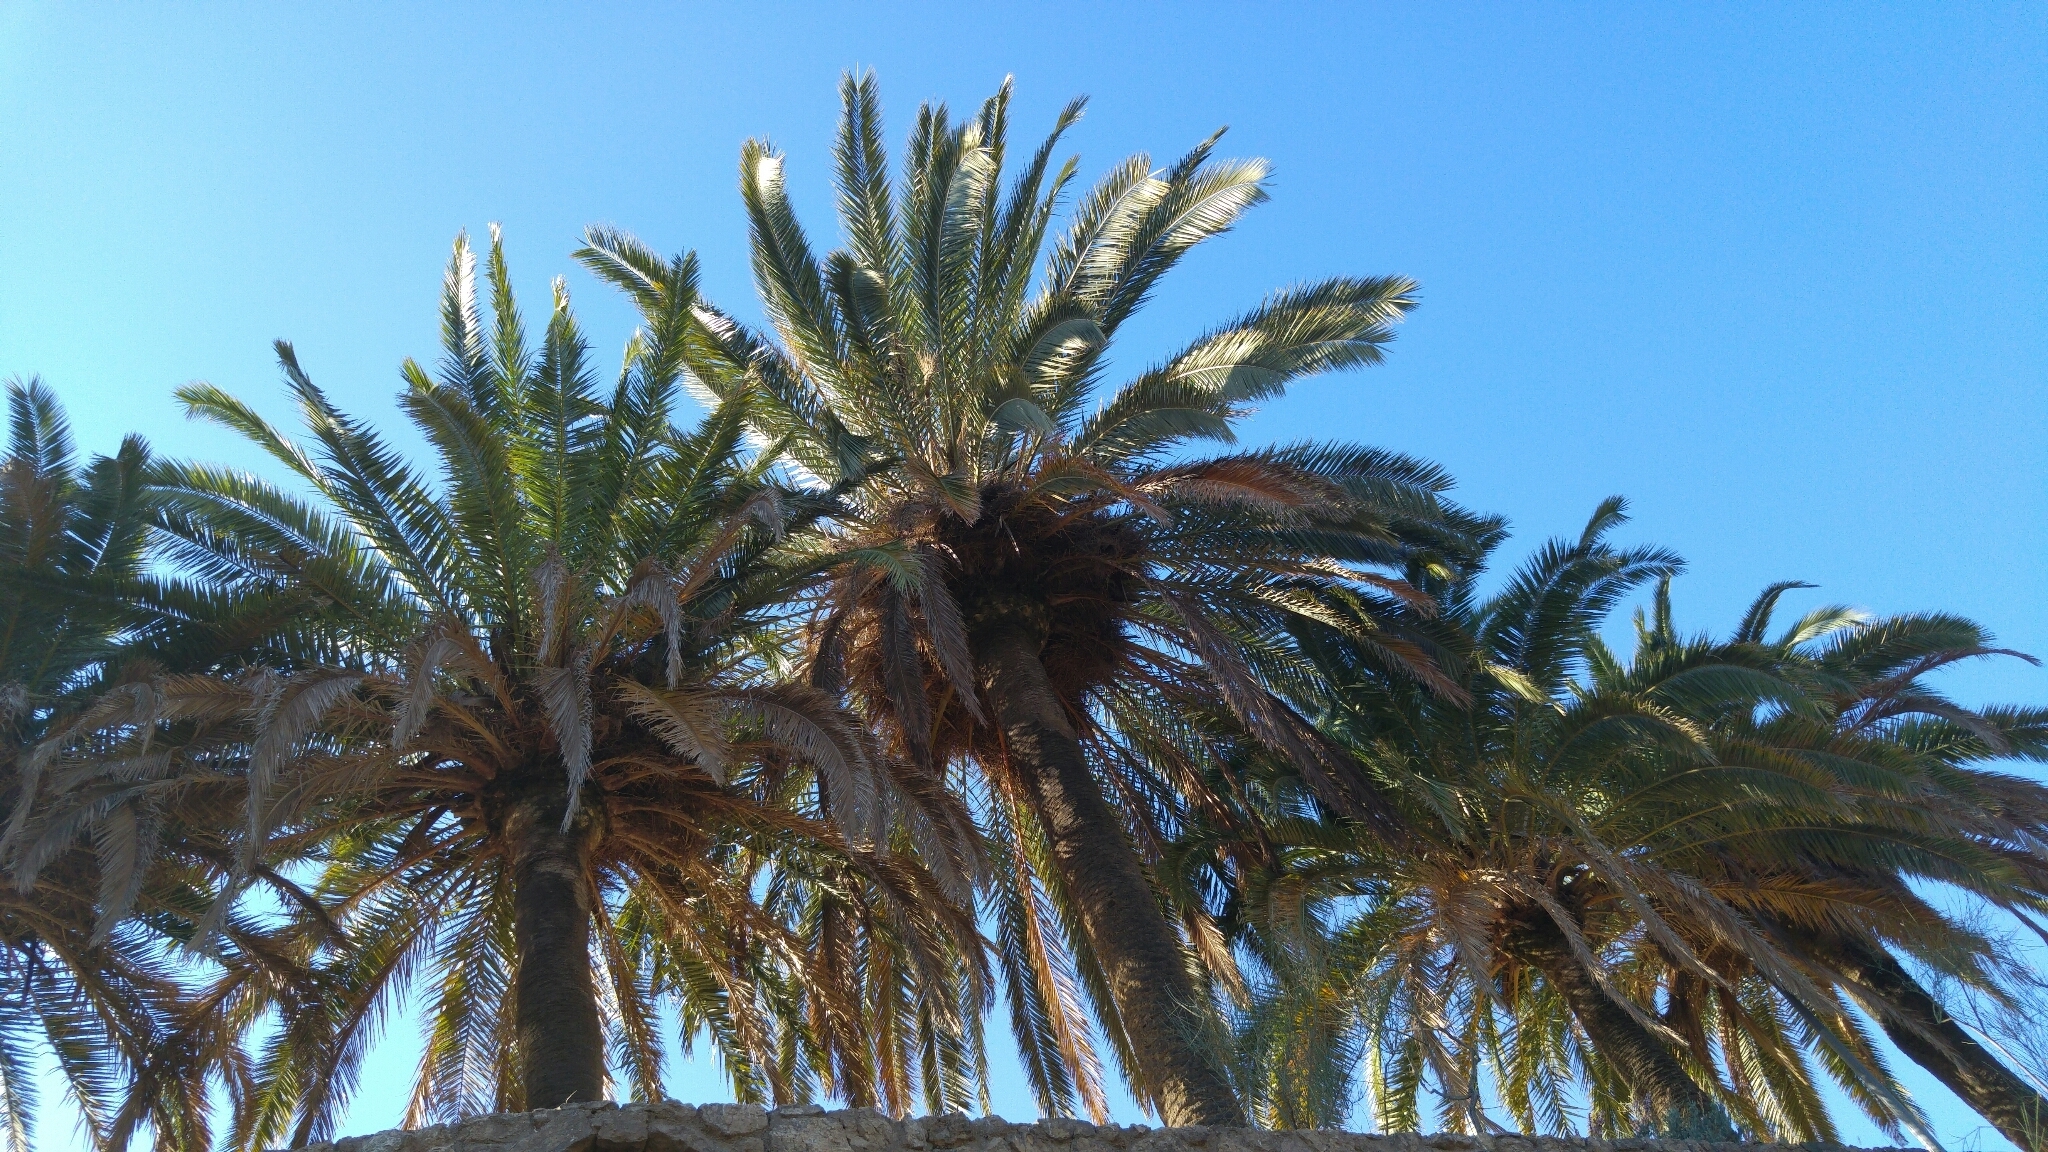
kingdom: Animalia
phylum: Chordata
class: Aves
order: Psittaciformes
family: Psittacidae
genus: Myiopsitta
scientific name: Myiopsitta monachus
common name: Monk parakeet
